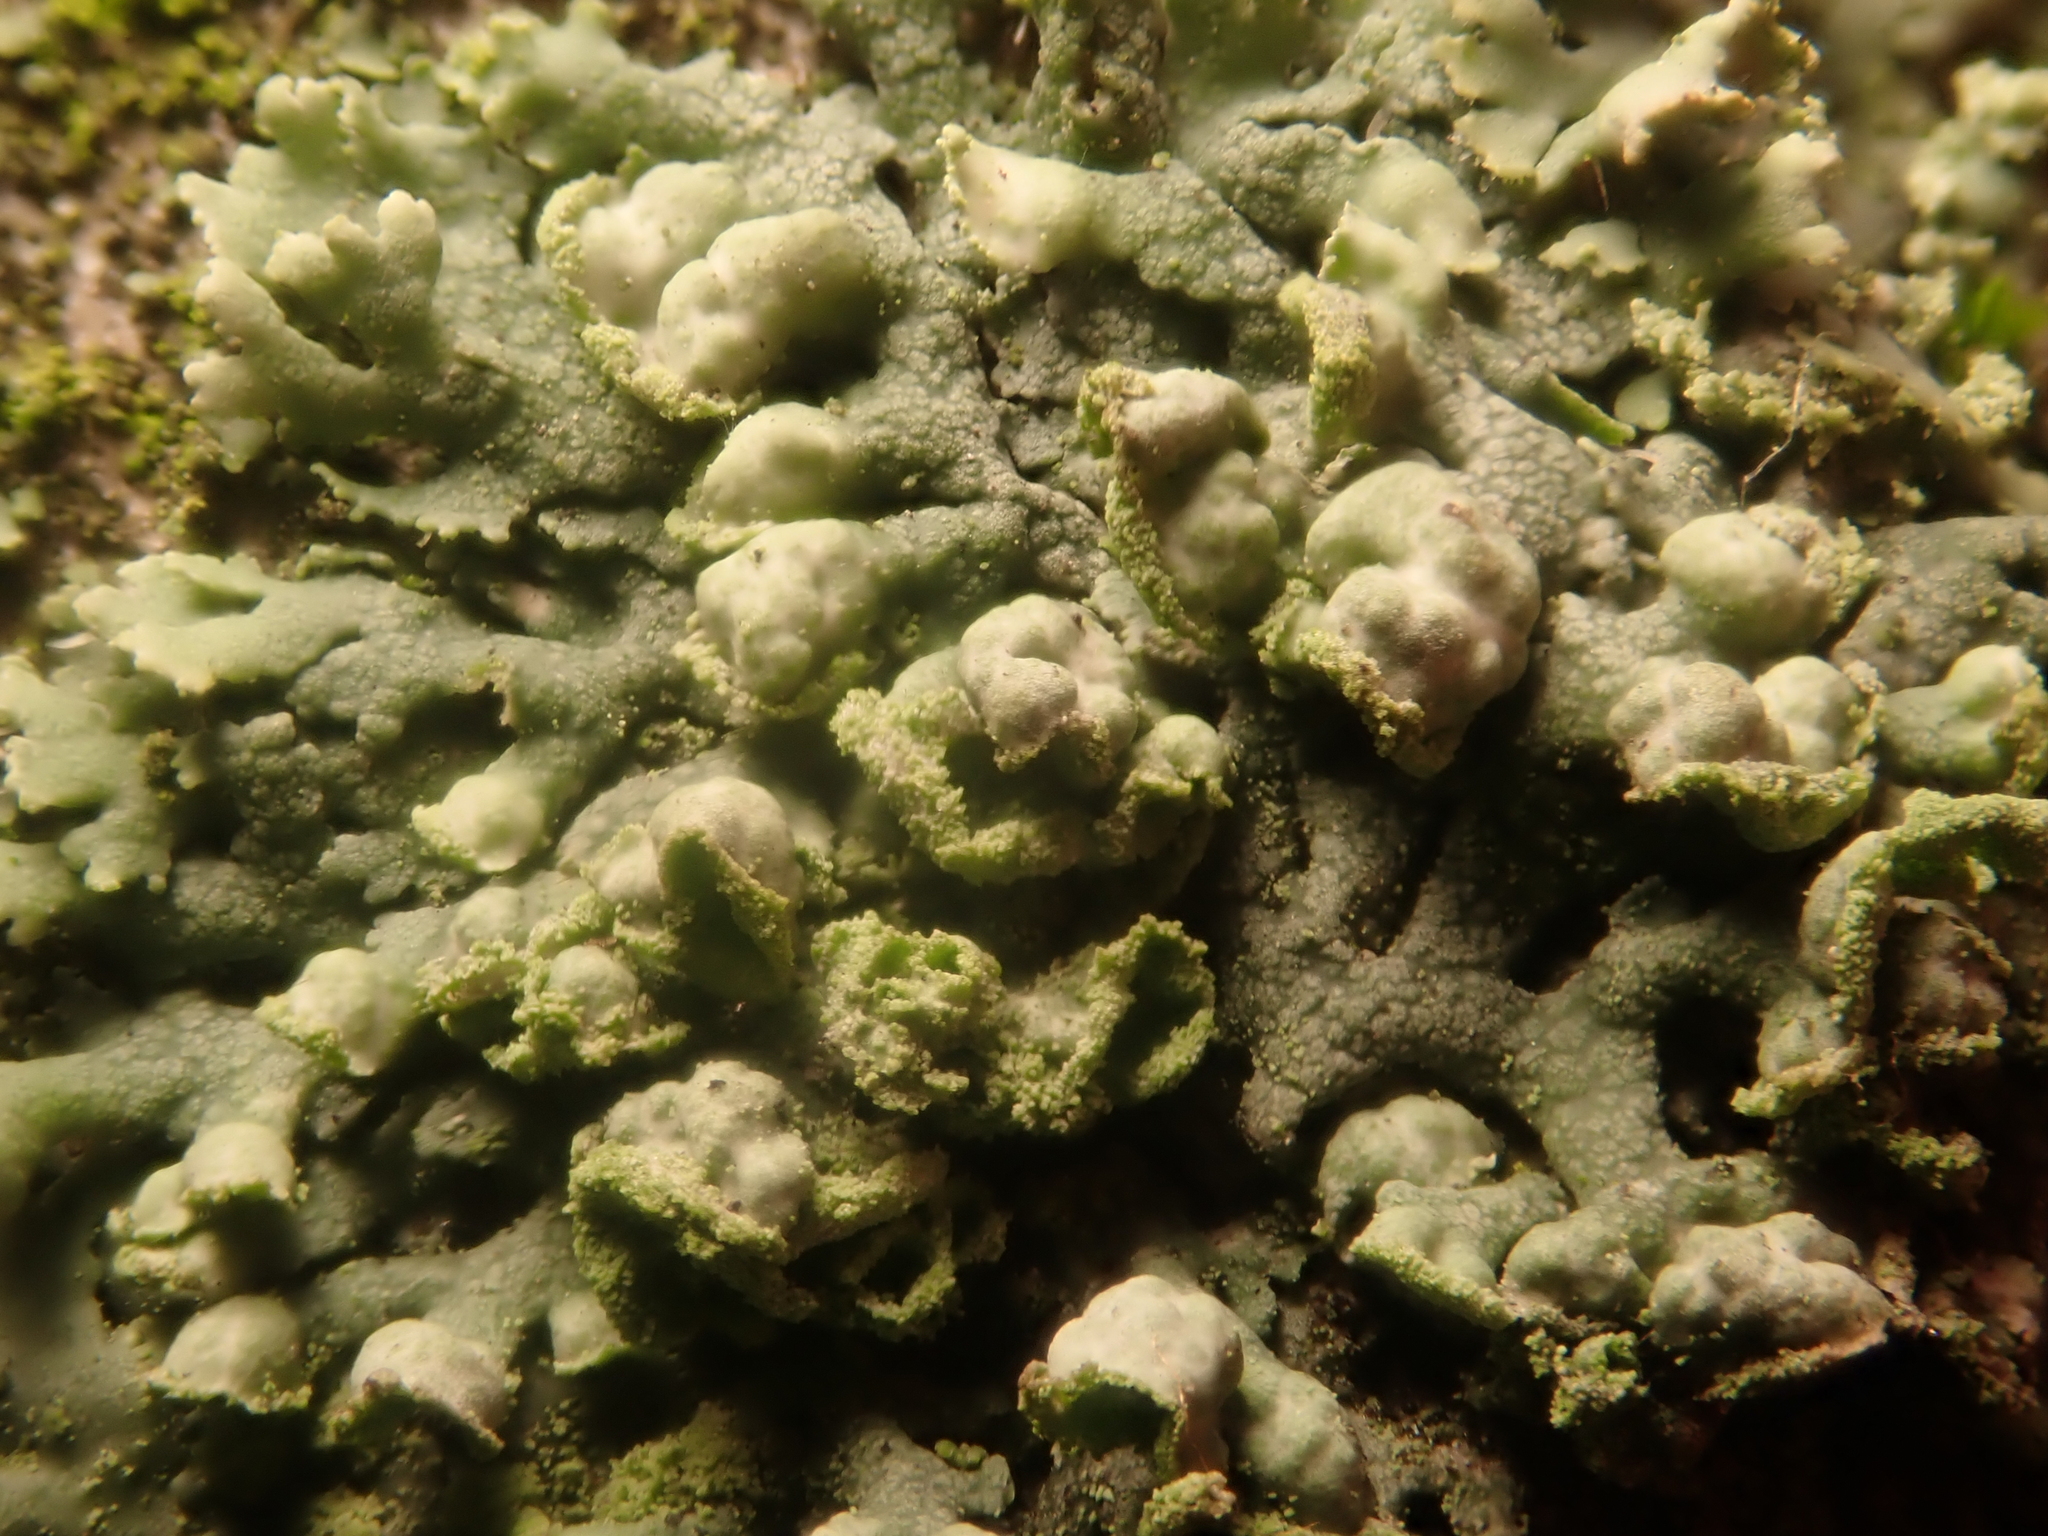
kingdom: Fungi
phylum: Ascomycota
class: Lecanoromycetes
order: Caliciales
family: Physciaceae
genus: Physcia
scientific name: Physcia adscendens
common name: Hooded rosette lichen
